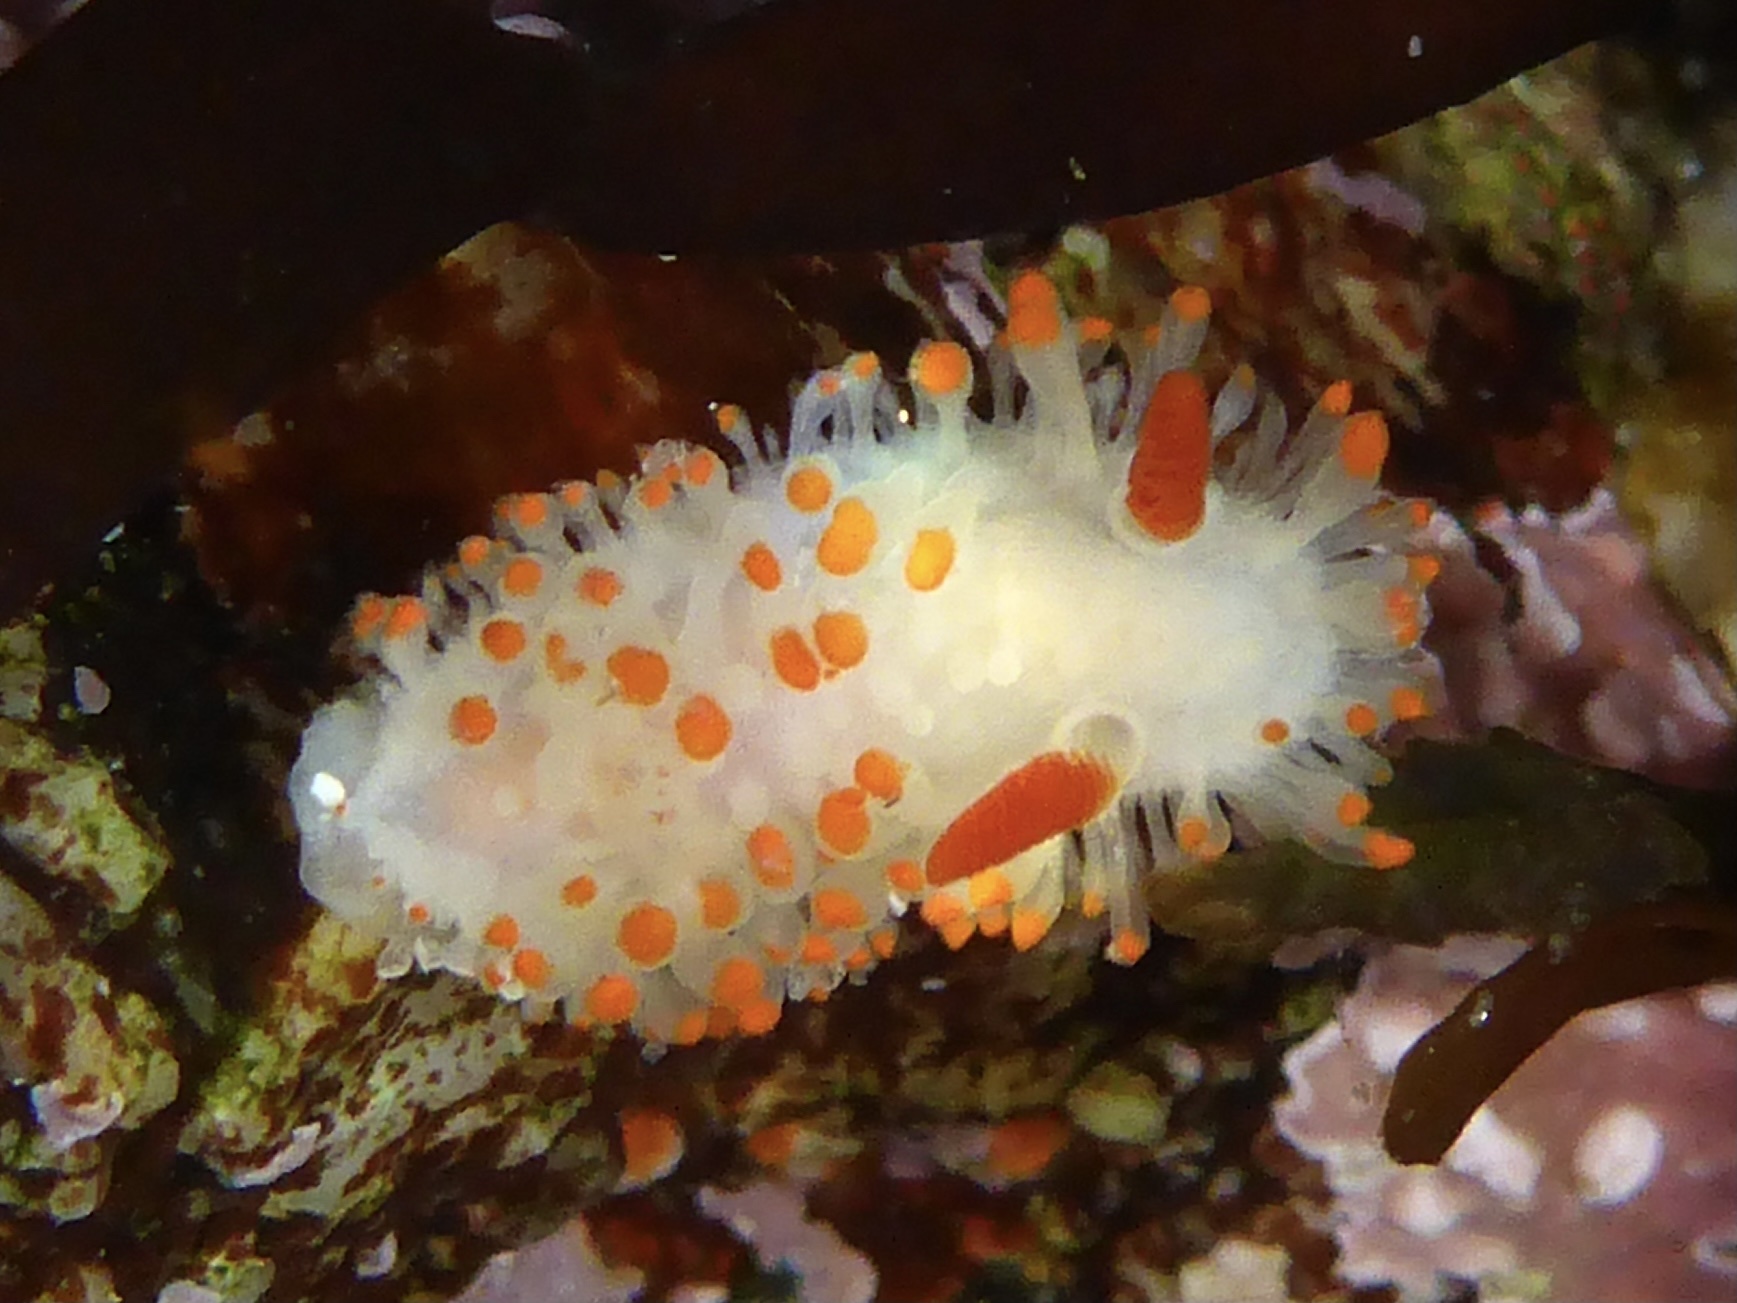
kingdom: Animalia
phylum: Mollusca
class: Gastropoda
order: Nudibranchia
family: Polyceridae
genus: Limacia
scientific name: Limacia cockerelli
